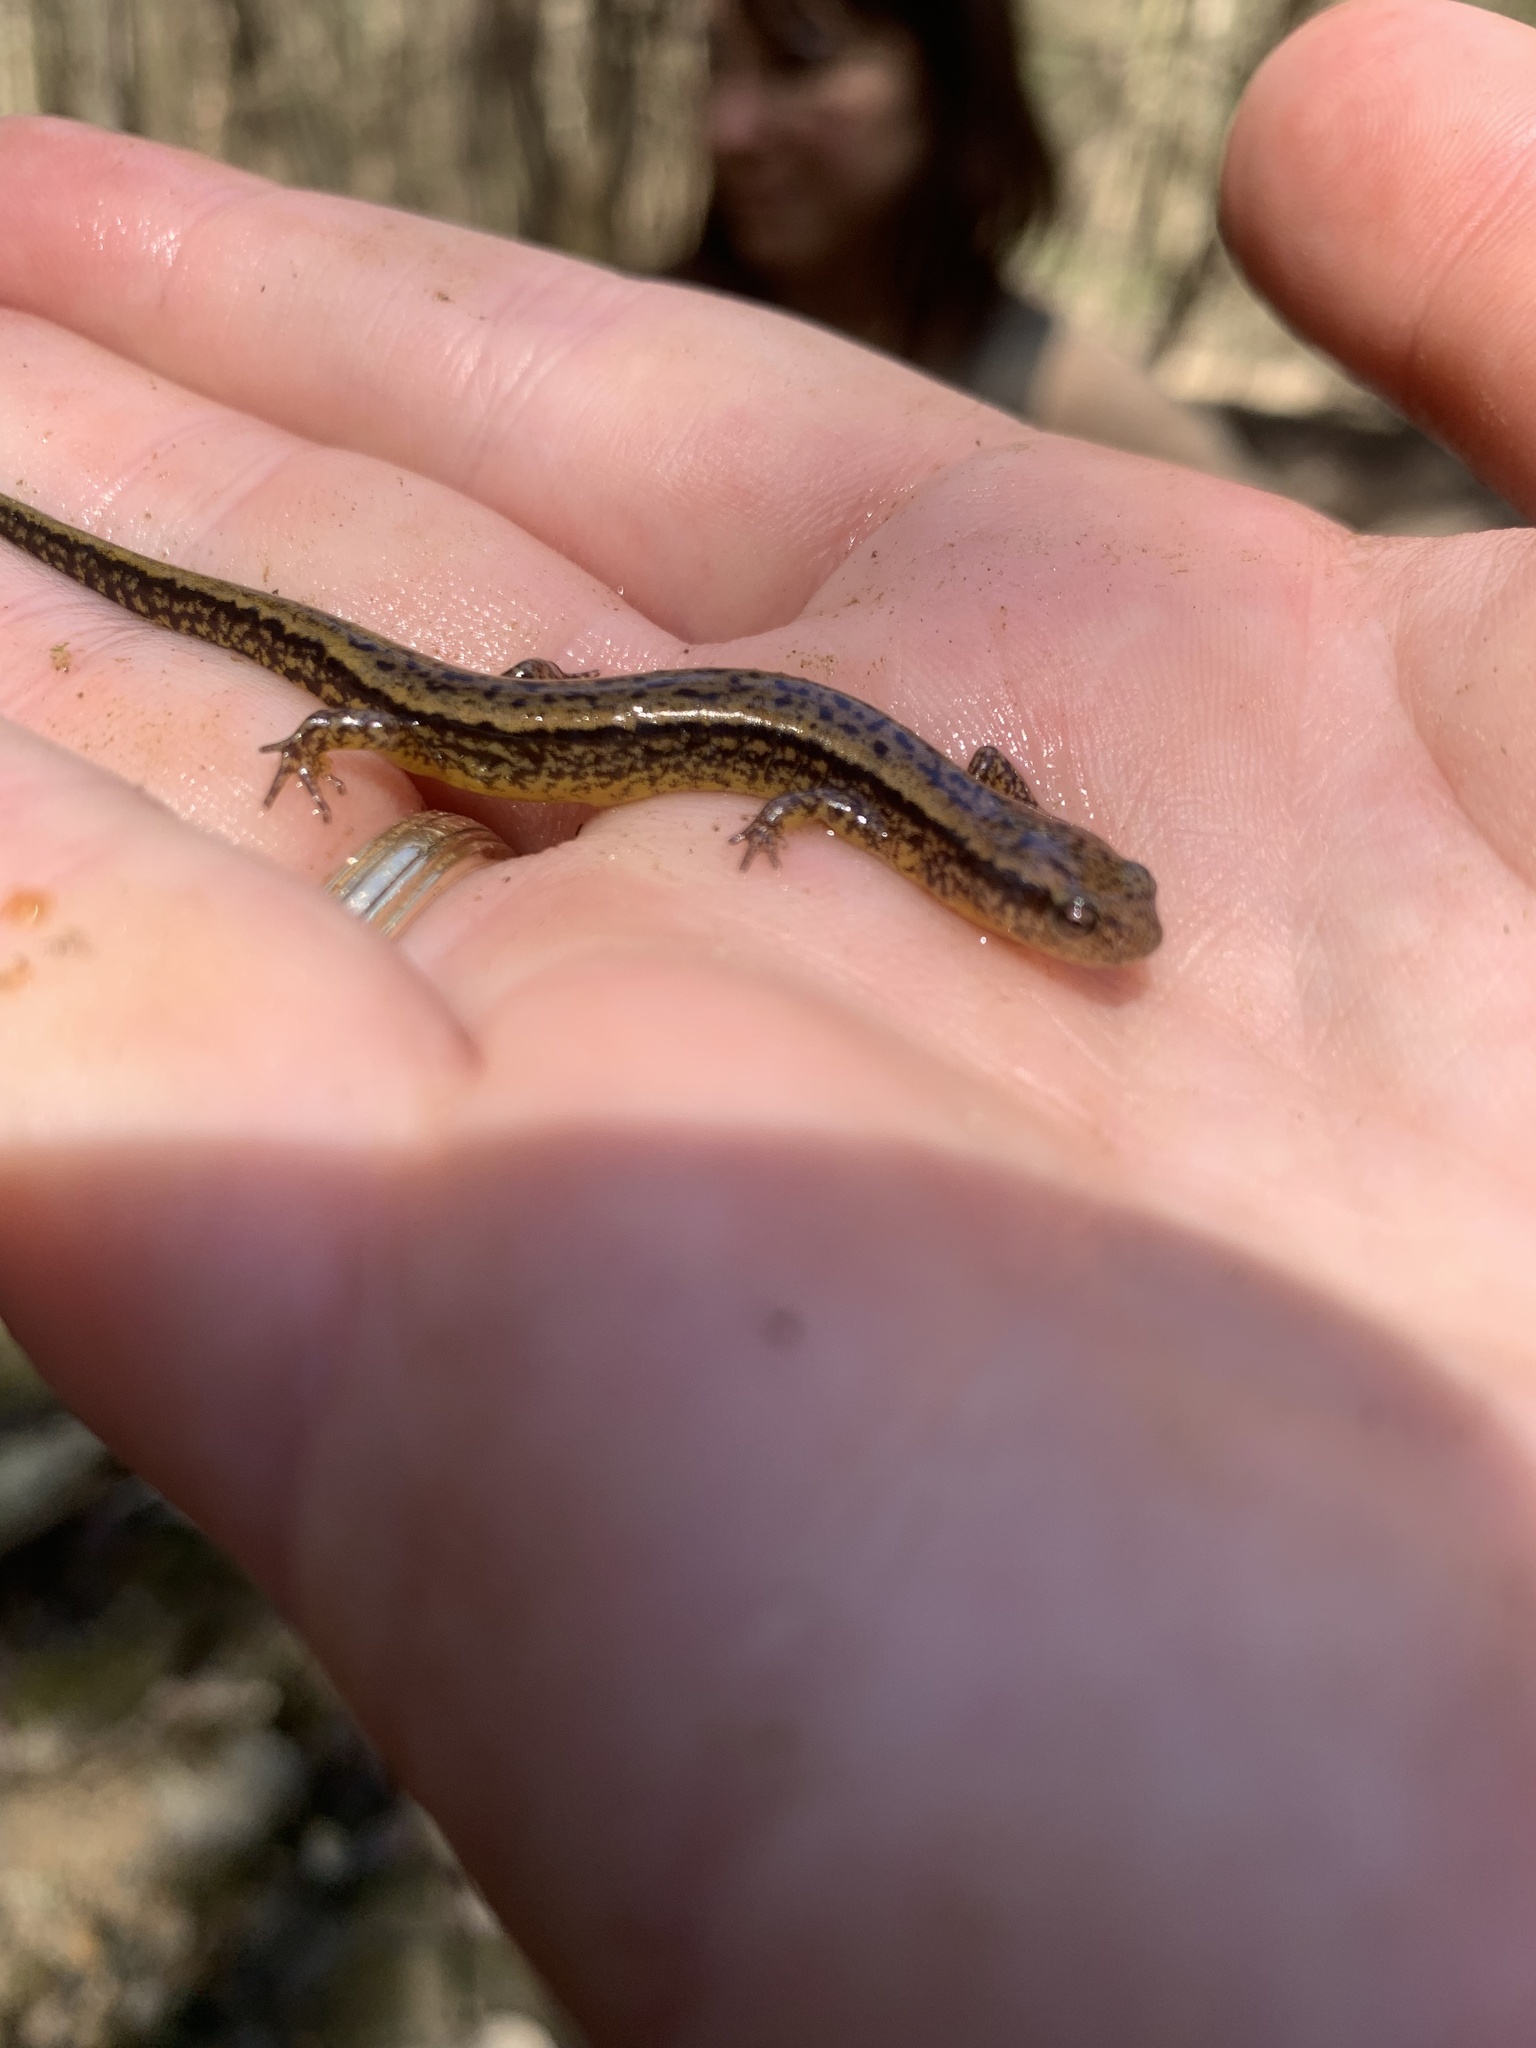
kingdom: Animalia
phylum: Chordata
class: Amphibia
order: Caudata
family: Plethodontidae
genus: Eurycea
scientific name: Eurycea cirrigera
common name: Southern two-lined salamander
